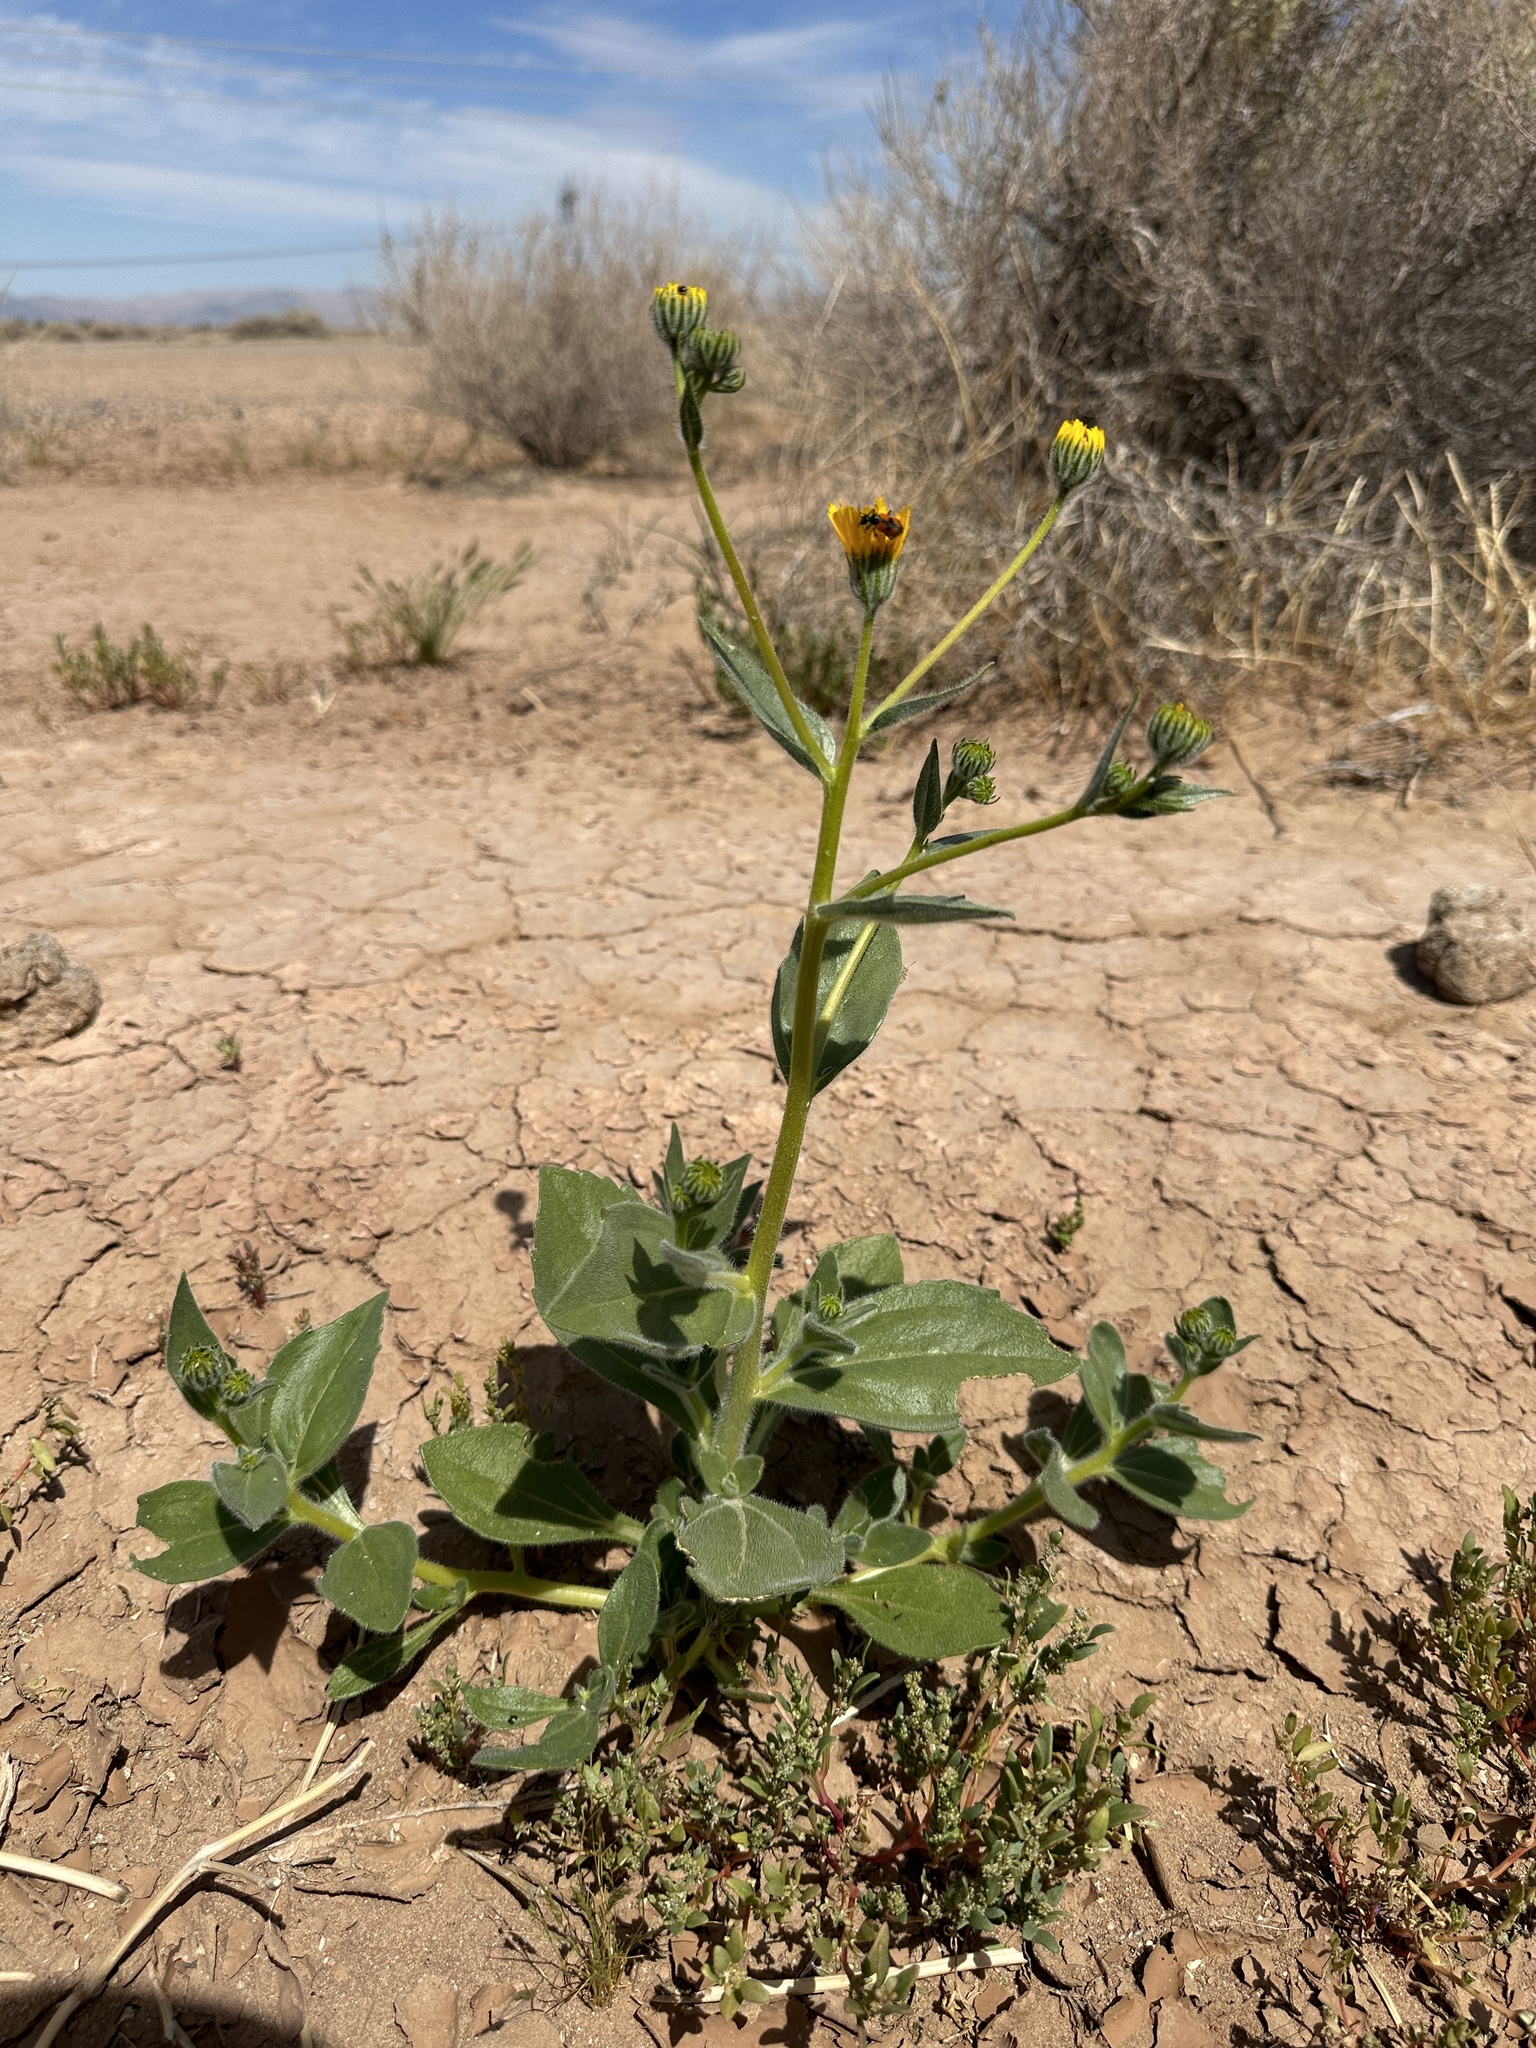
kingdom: Plantae
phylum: Tracheophyta
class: Magnoliopsida
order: Asterales
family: Asteraceae
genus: Geraea
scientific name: Geraea canescens
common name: Desert-gold
